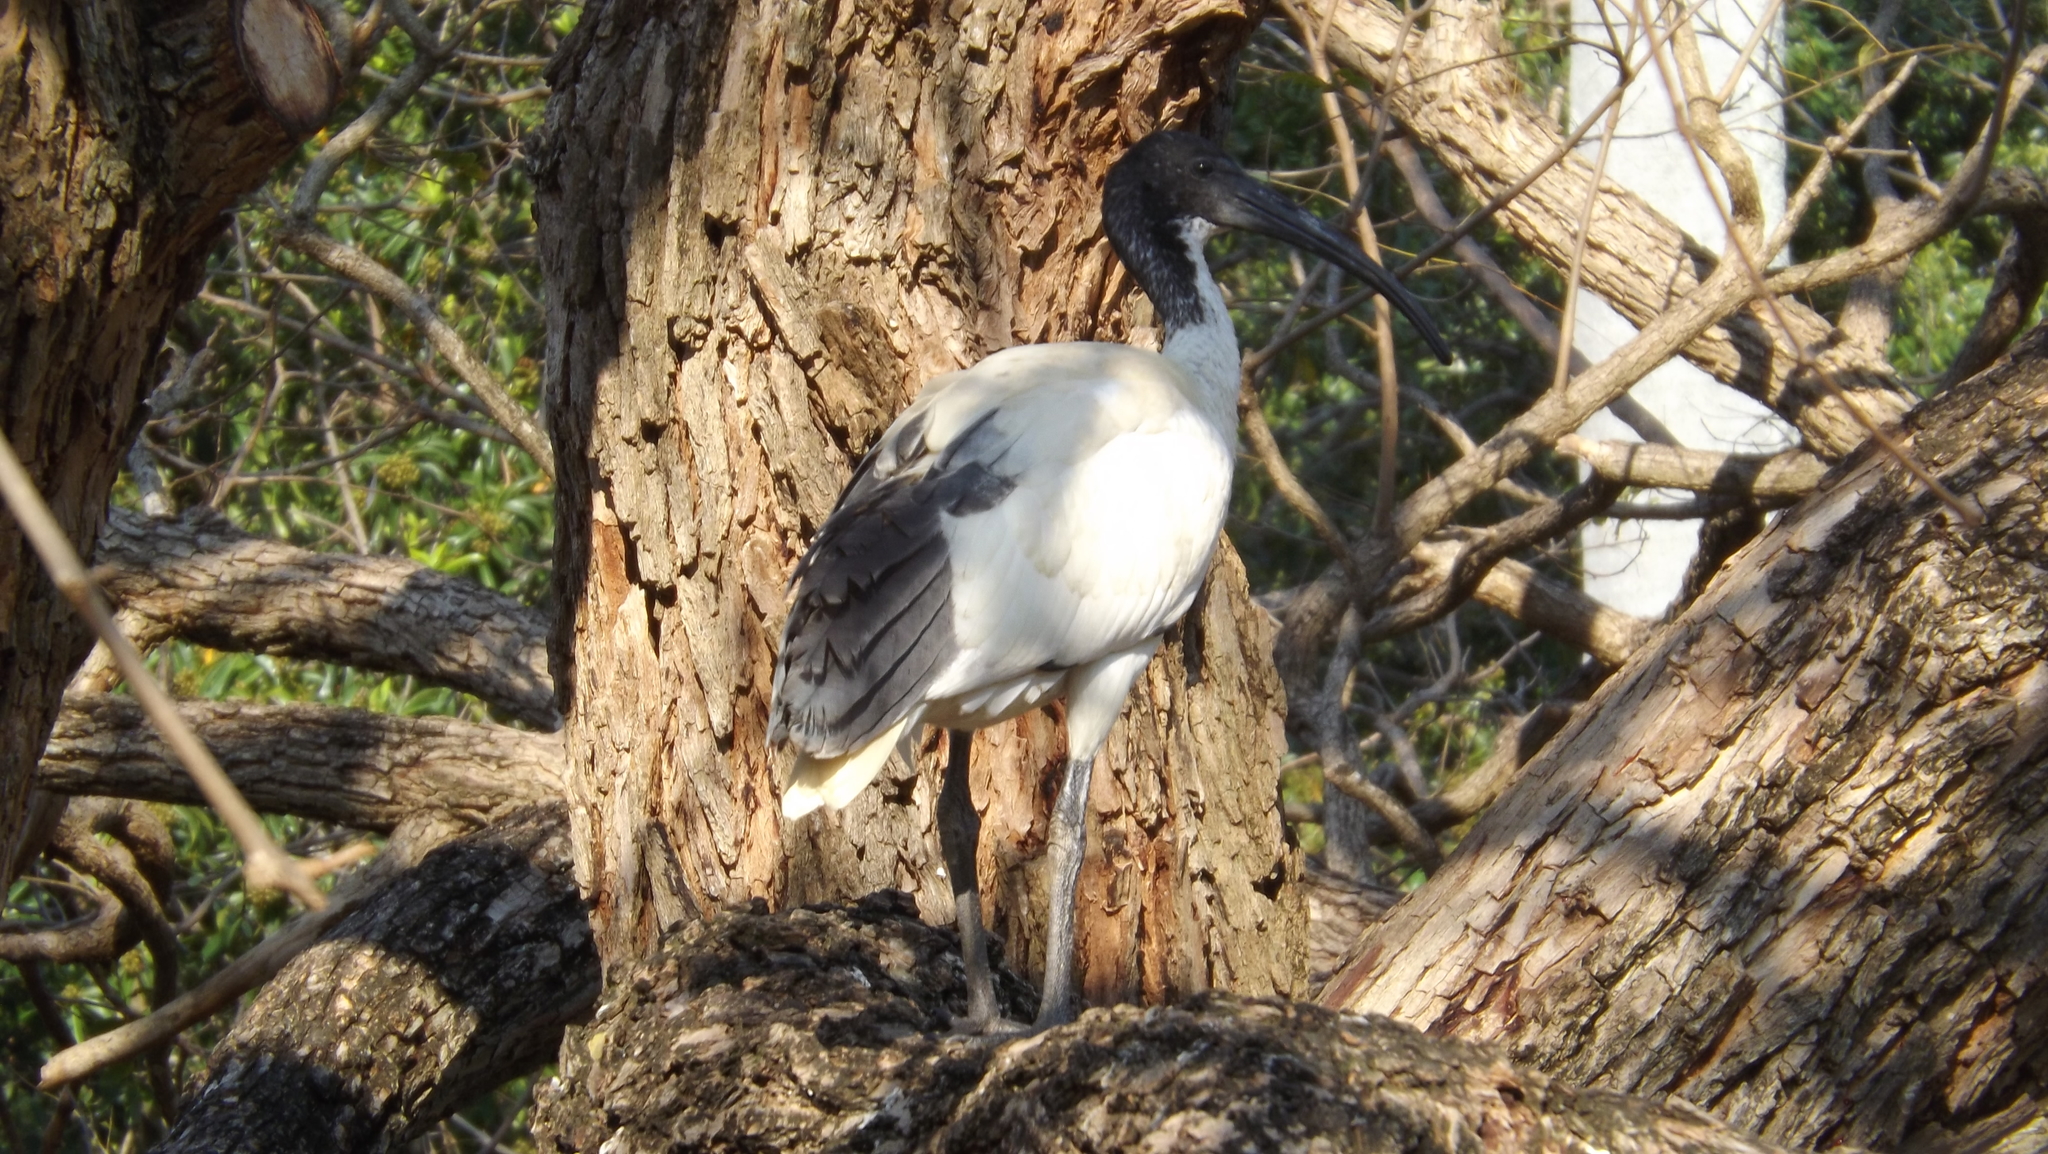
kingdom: Animalia
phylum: Chordata
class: Aves
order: Pelecaniformes
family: Threskiornithidae
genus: Threskiornis
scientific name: Threskiornis molucca
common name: Australian white ibis
